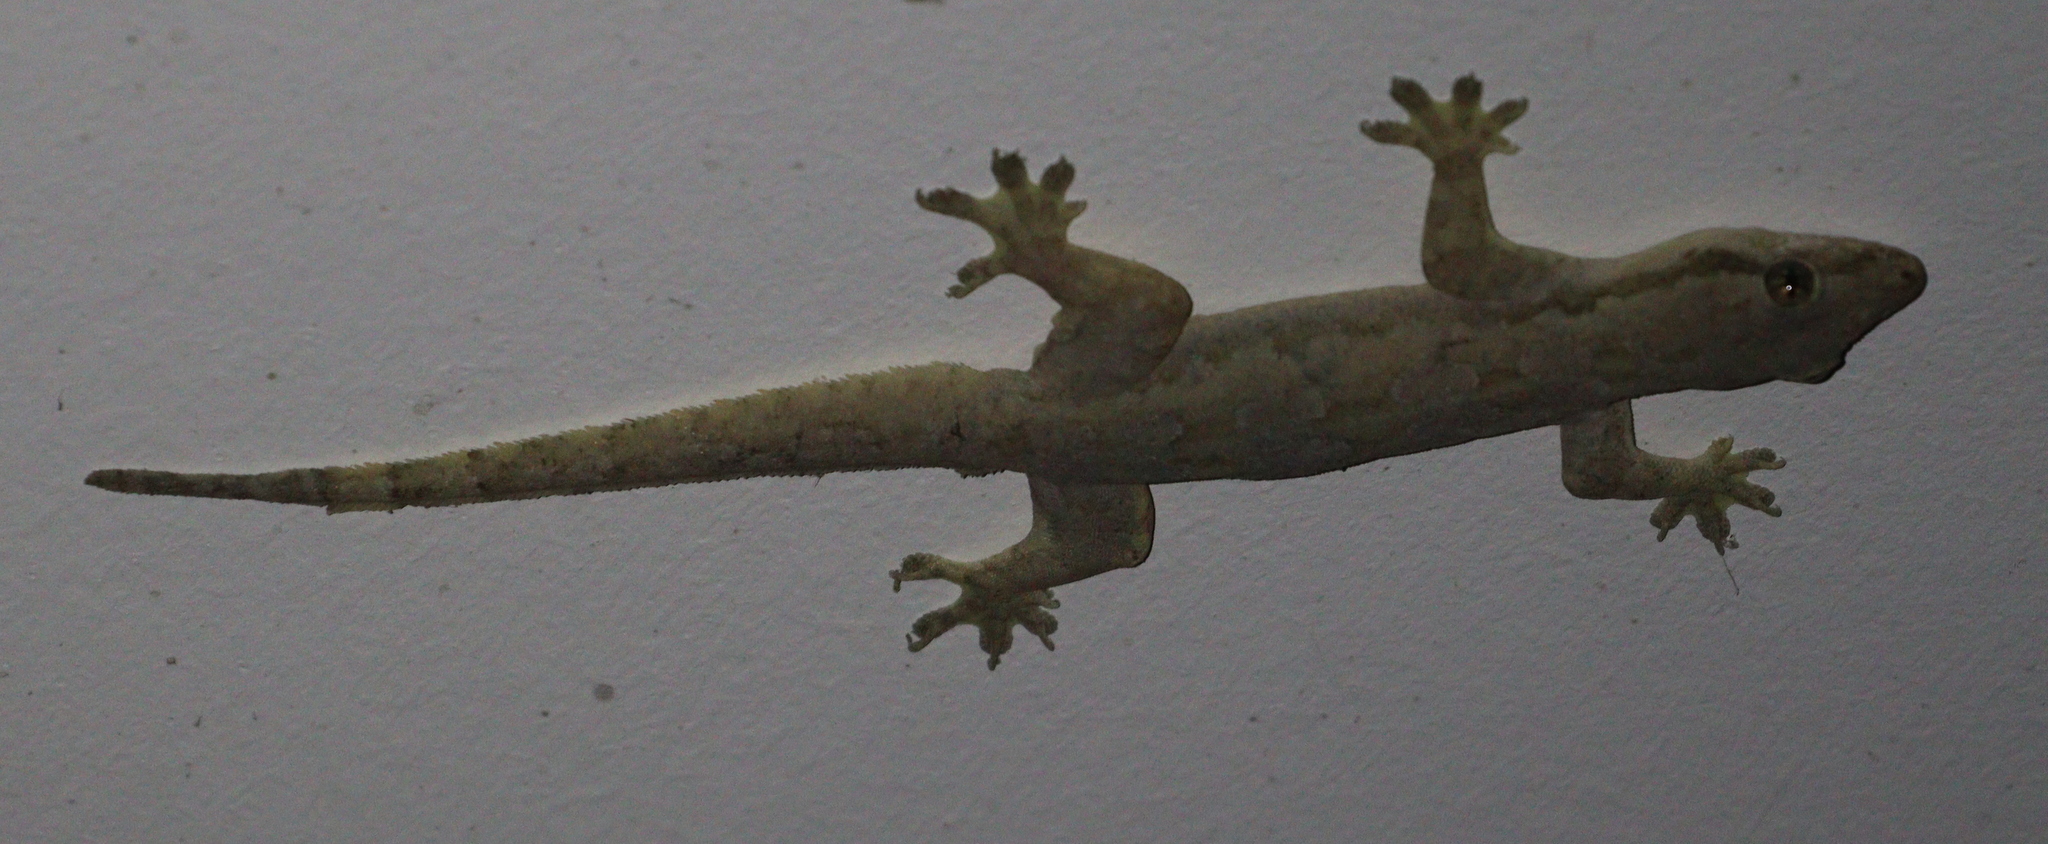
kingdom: Animalia
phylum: Chordata
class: Squamata
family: Gekkonidae
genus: Hemidactylus
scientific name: Hemidactylus platyurus
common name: Flat-tailed house gecko
